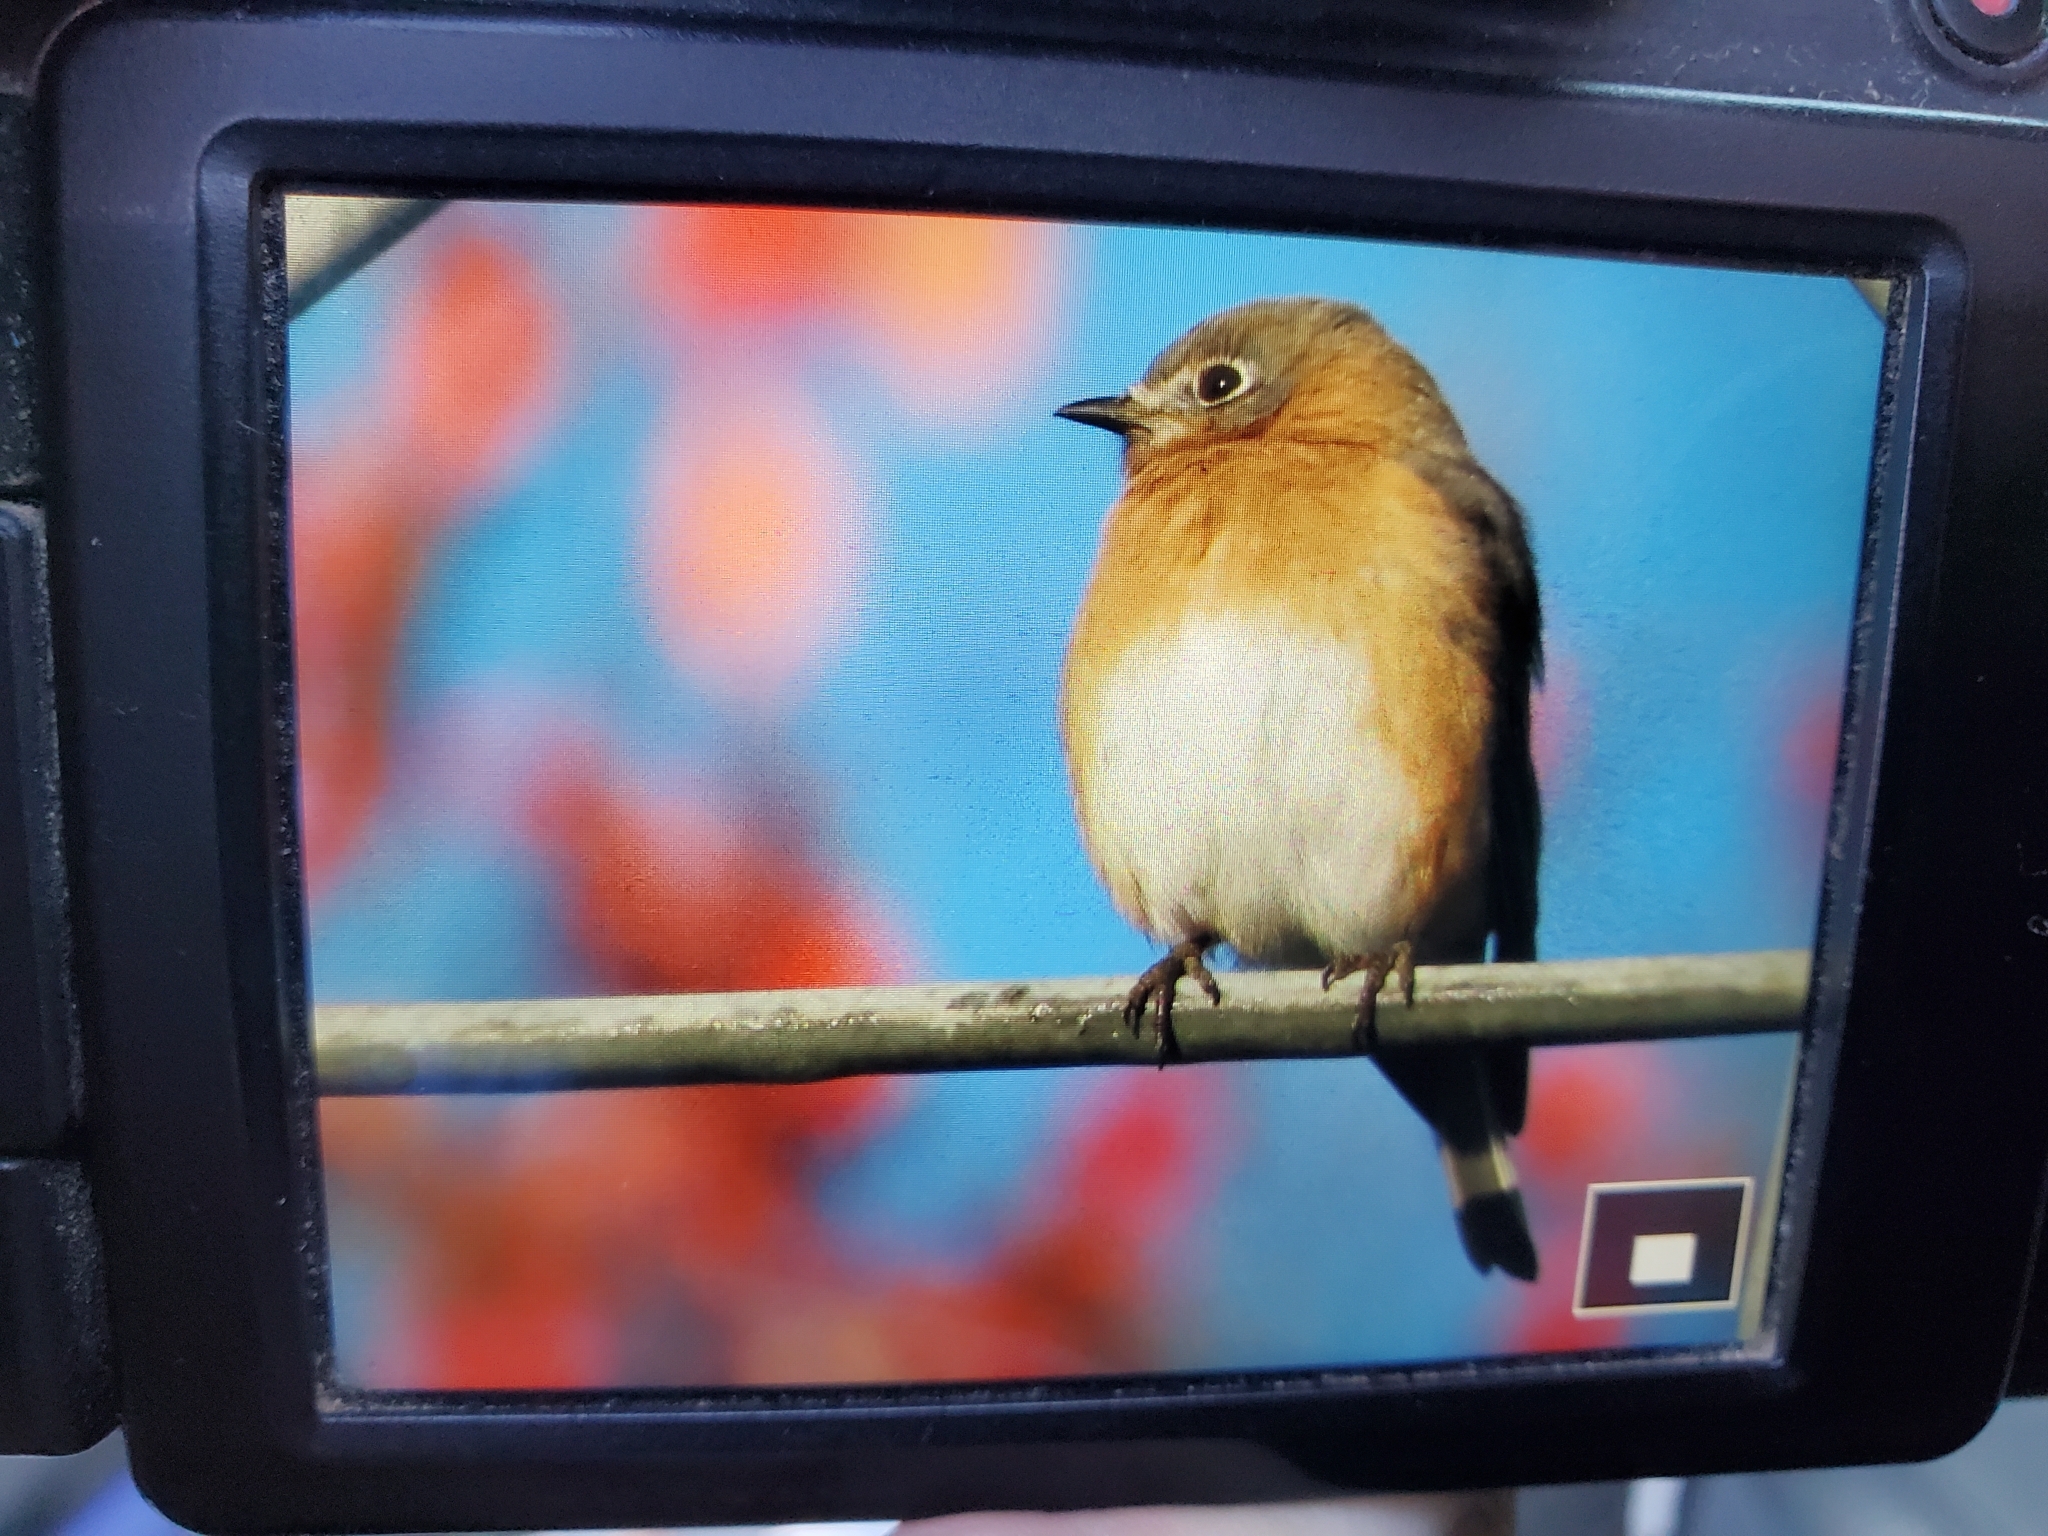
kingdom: Animalia
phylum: Chordata
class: Aves
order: Passeriformes
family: Turdidae
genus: Sialia
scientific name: Sialia sialis
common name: Eastern bluebird
